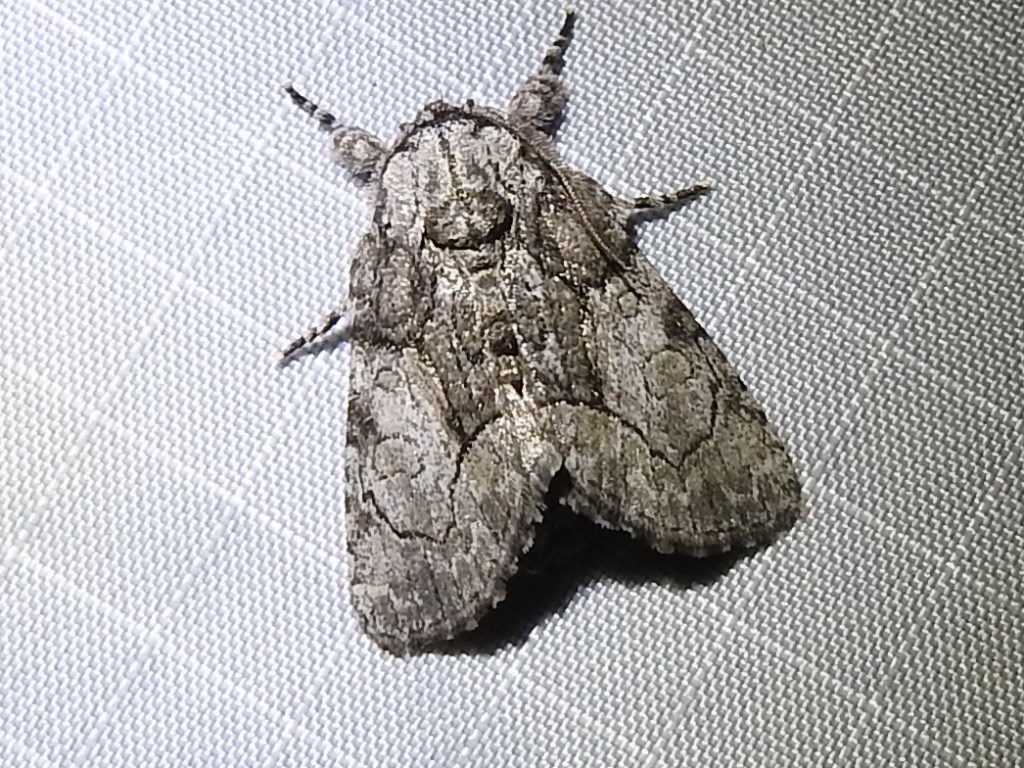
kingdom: Animalia
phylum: Arthropoda
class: Insecta
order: Lepidoptera
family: Noctuidae
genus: Raphia
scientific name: Raphia frater
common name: Brother
